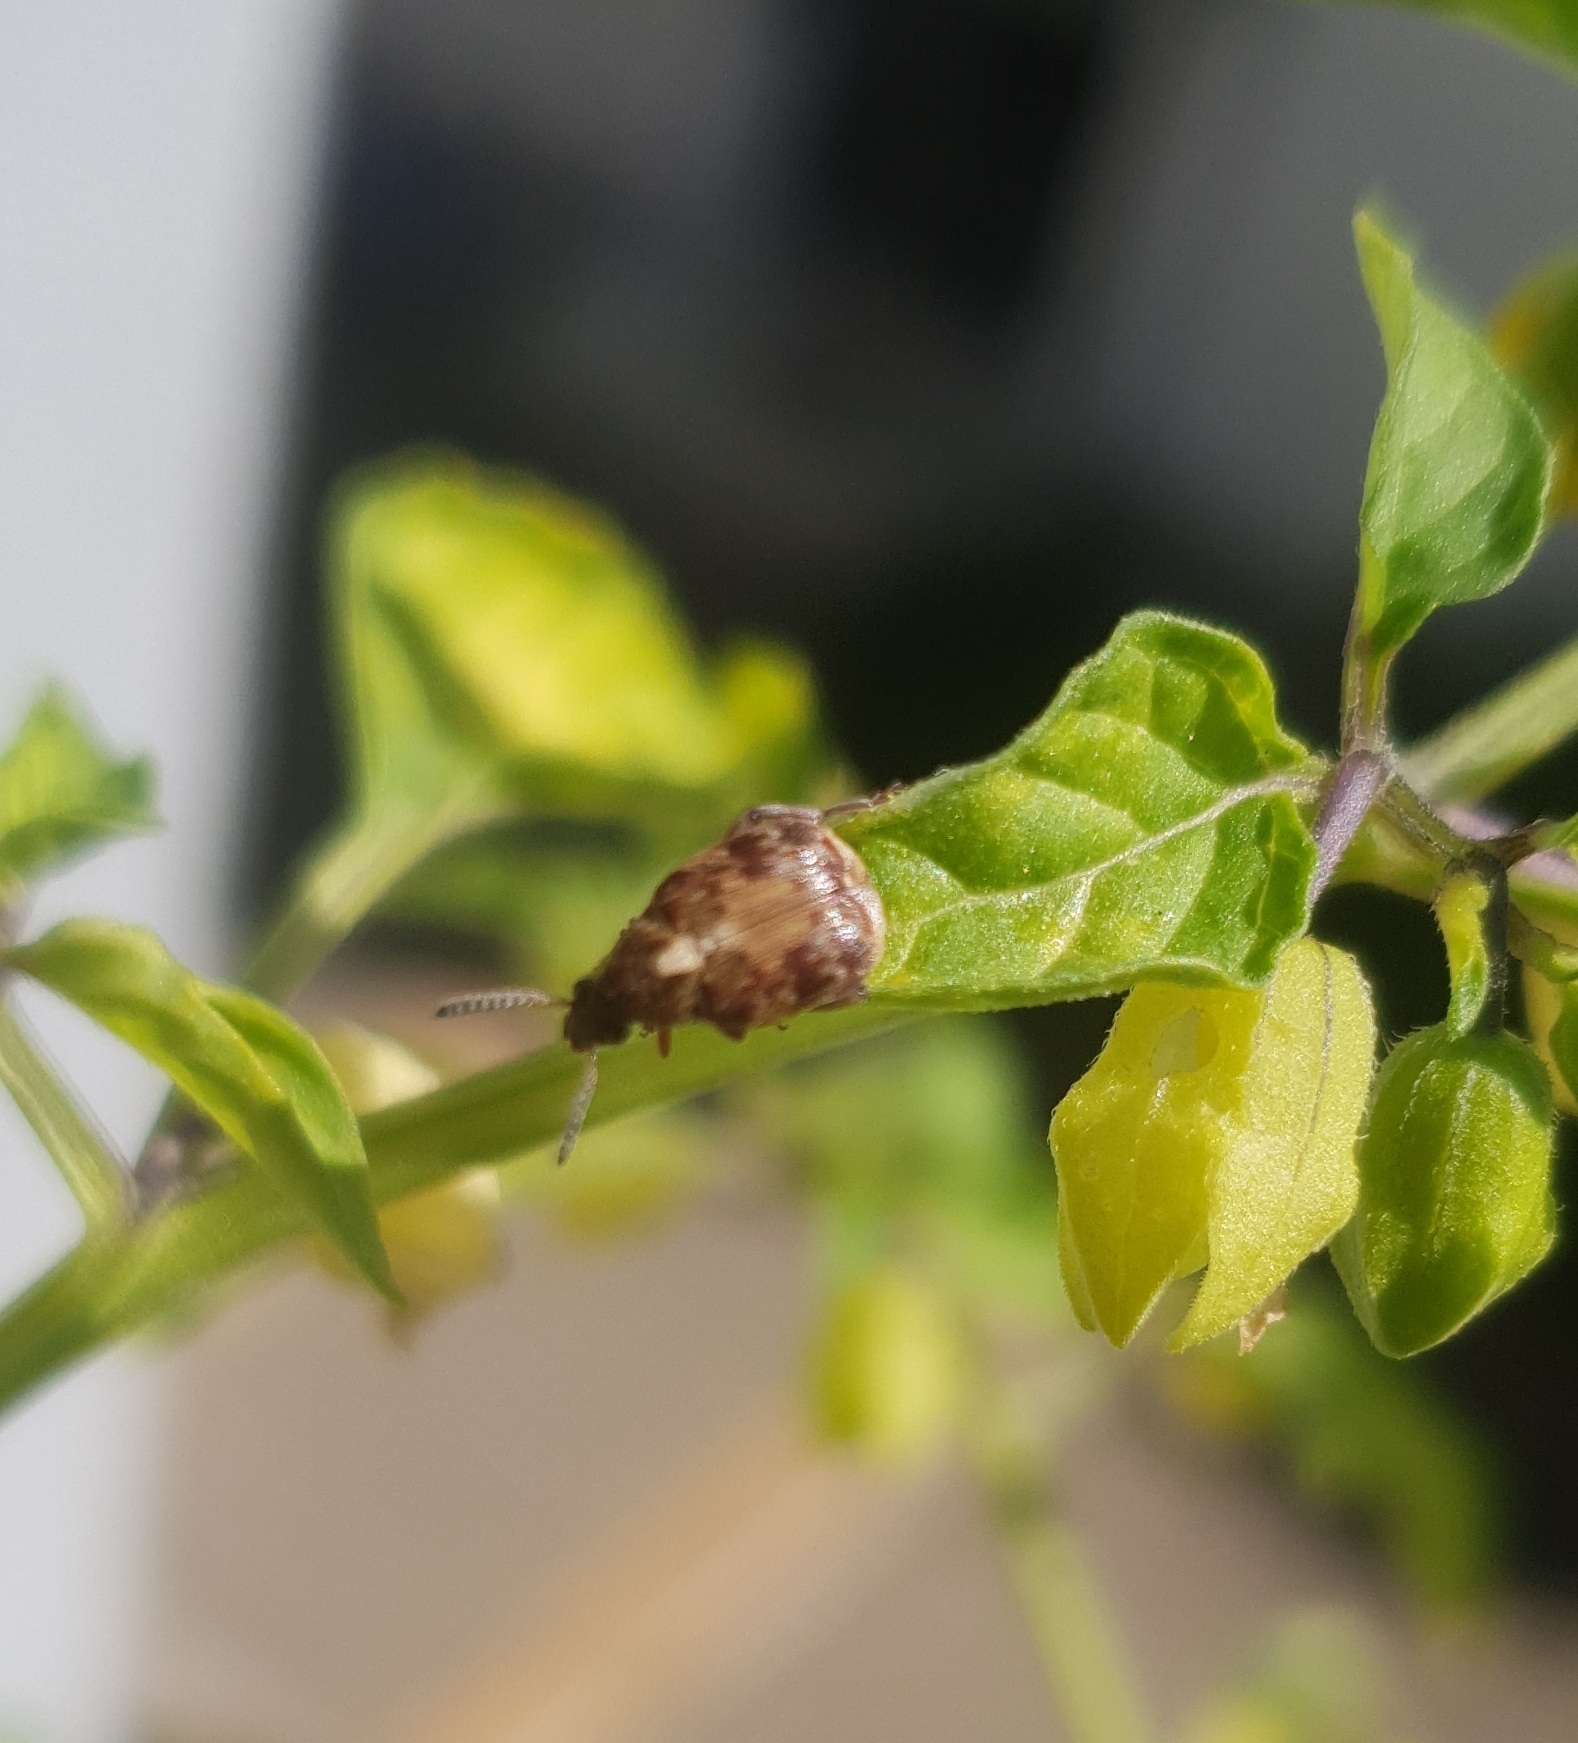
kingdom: Animalia
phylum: Arthropoda
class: Insecta
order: Coleoptera
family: Chrysomelidae
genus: Megabruchidius
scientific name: Megabruchidius dorsalis
